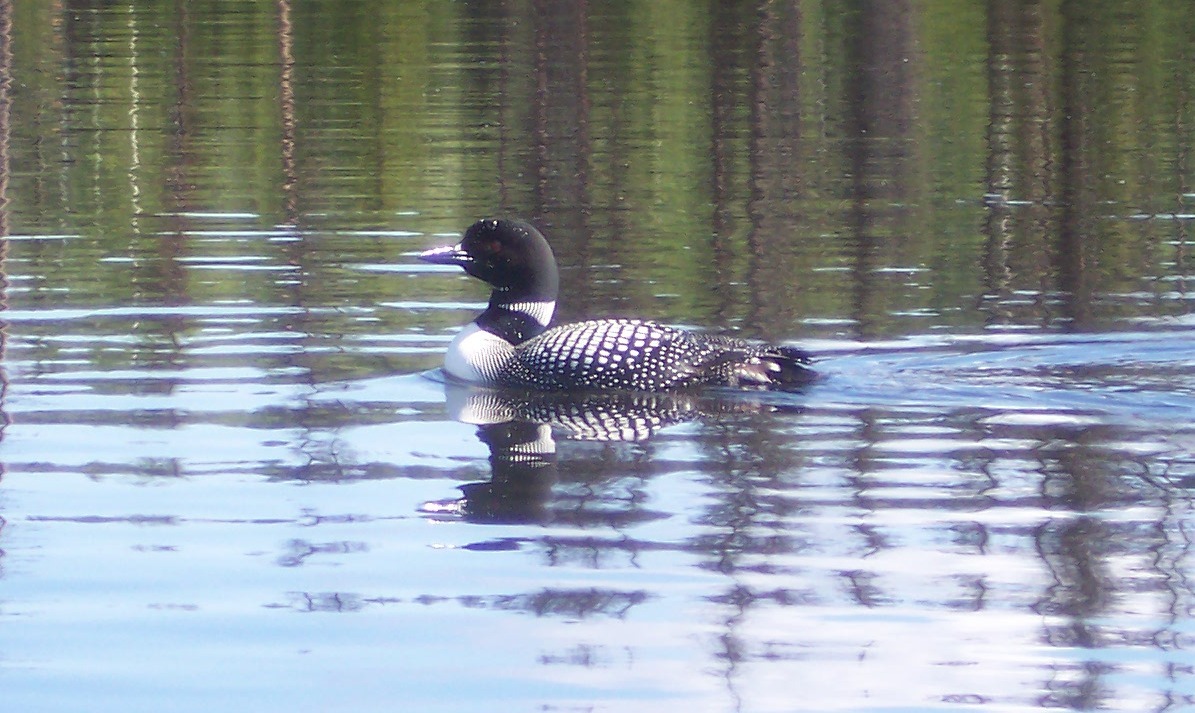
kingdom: Animalia
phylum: Chordata
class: Aves
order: Gaviiformes
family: Gaviidae
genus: Gavia
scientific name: Gavia immer
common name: Common loon
